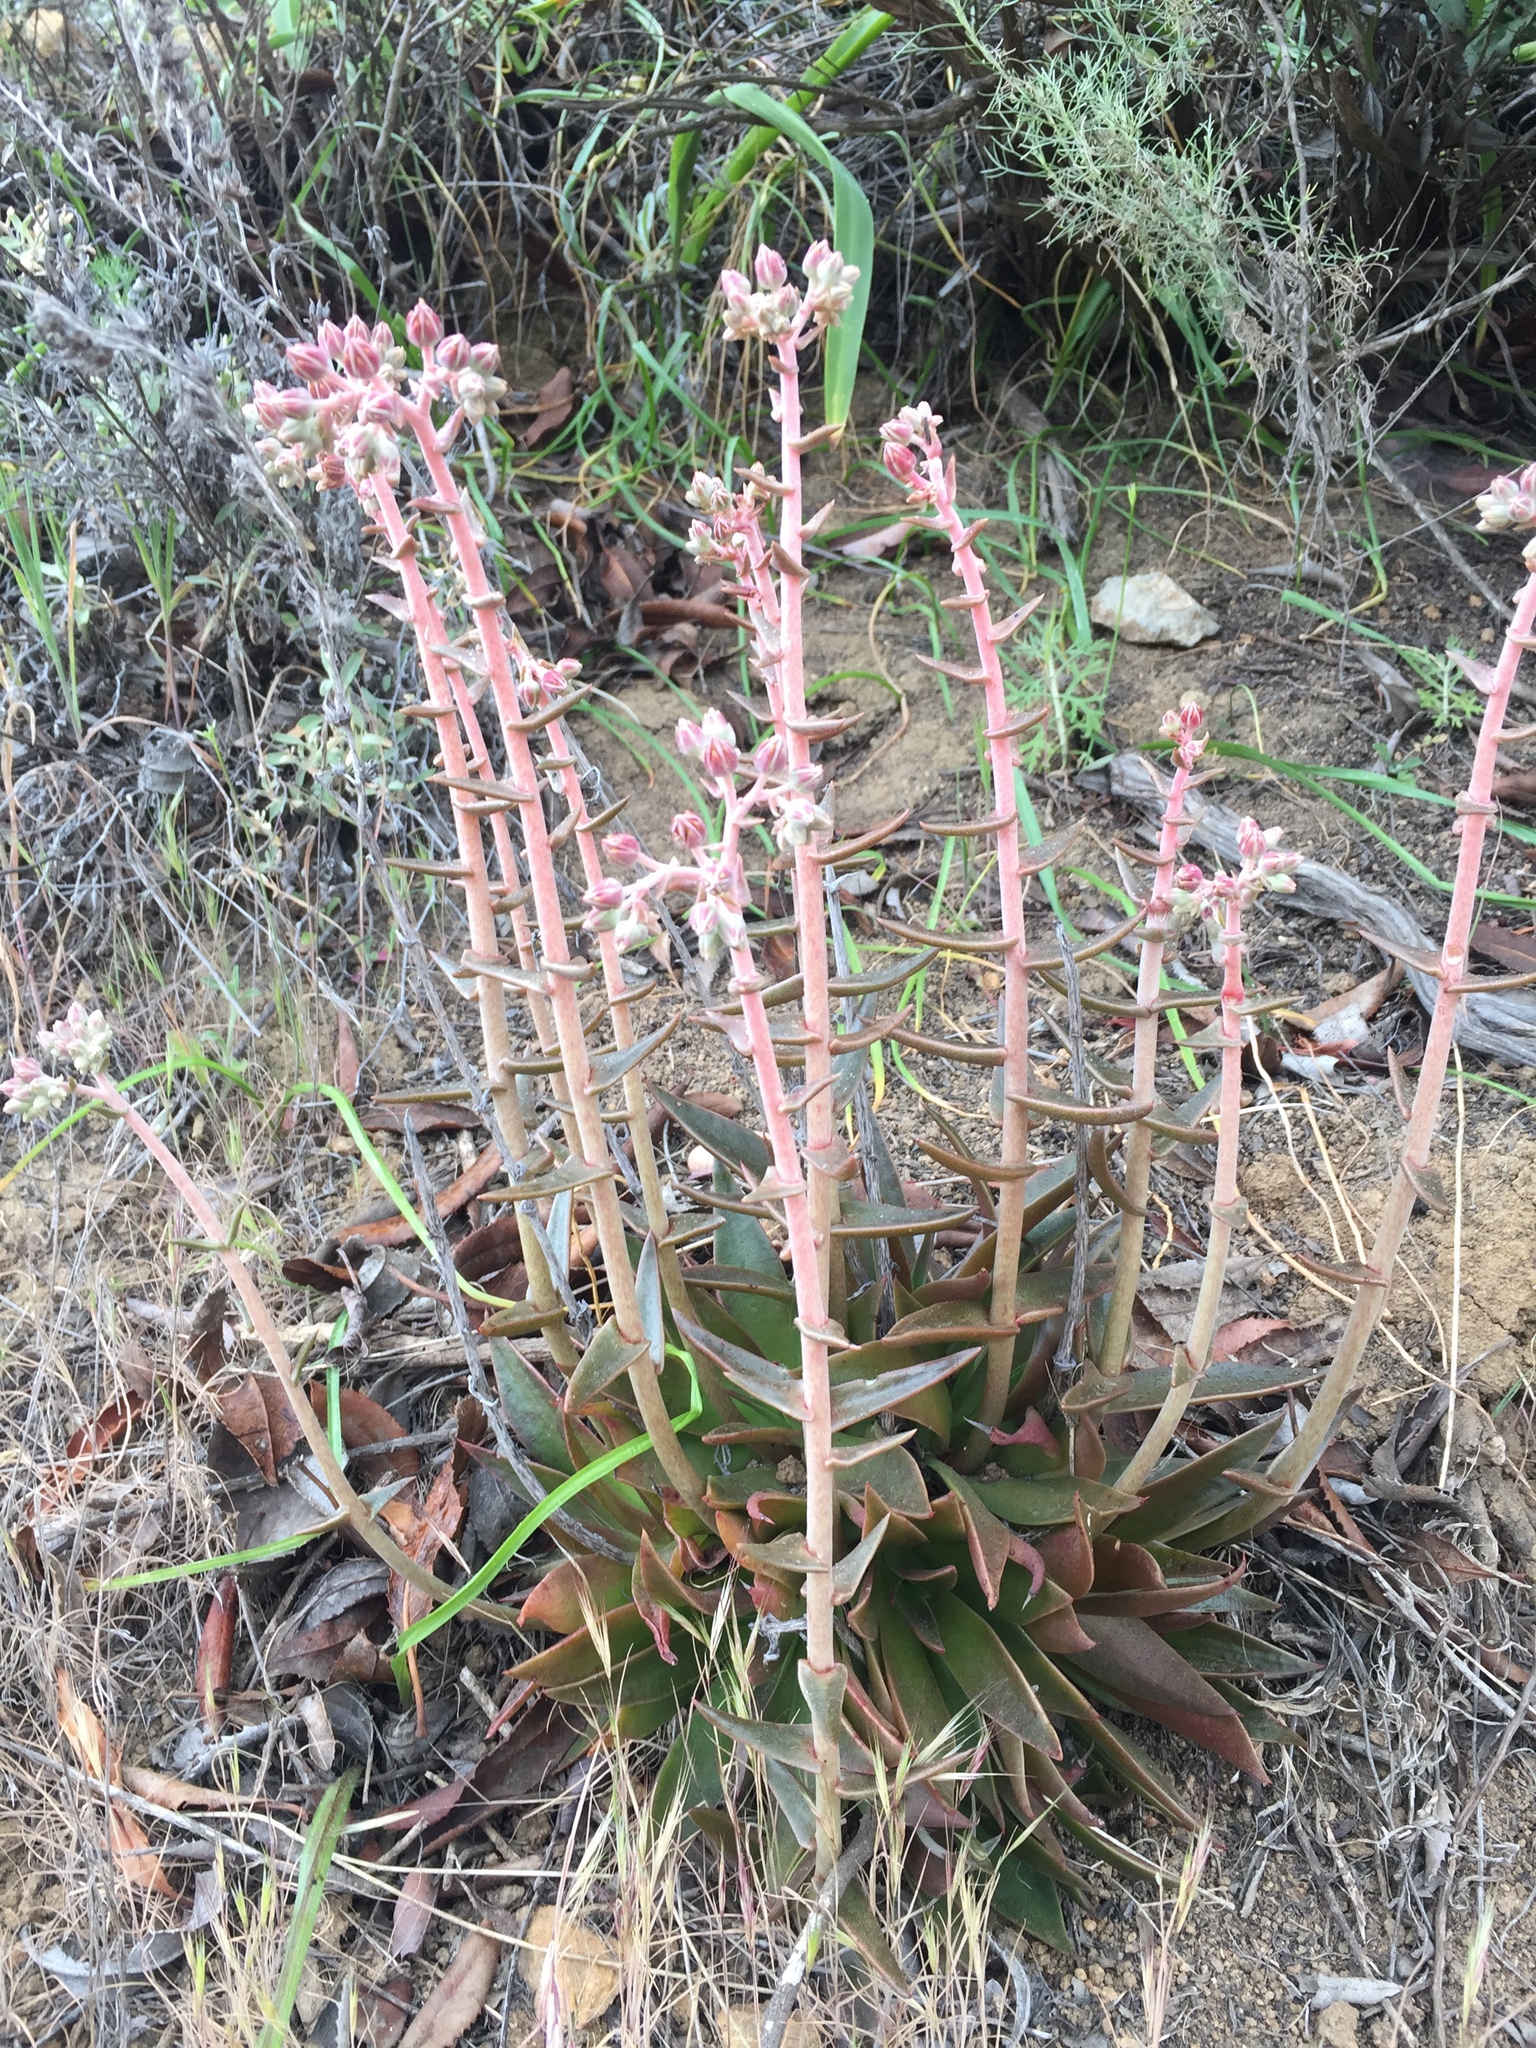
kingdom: Plantae
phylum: Tracheophyta
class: Magnoliopsida
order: Saxifragales
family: Crassulaceae
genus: Dudleya
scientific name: Dudleya lanceolata
